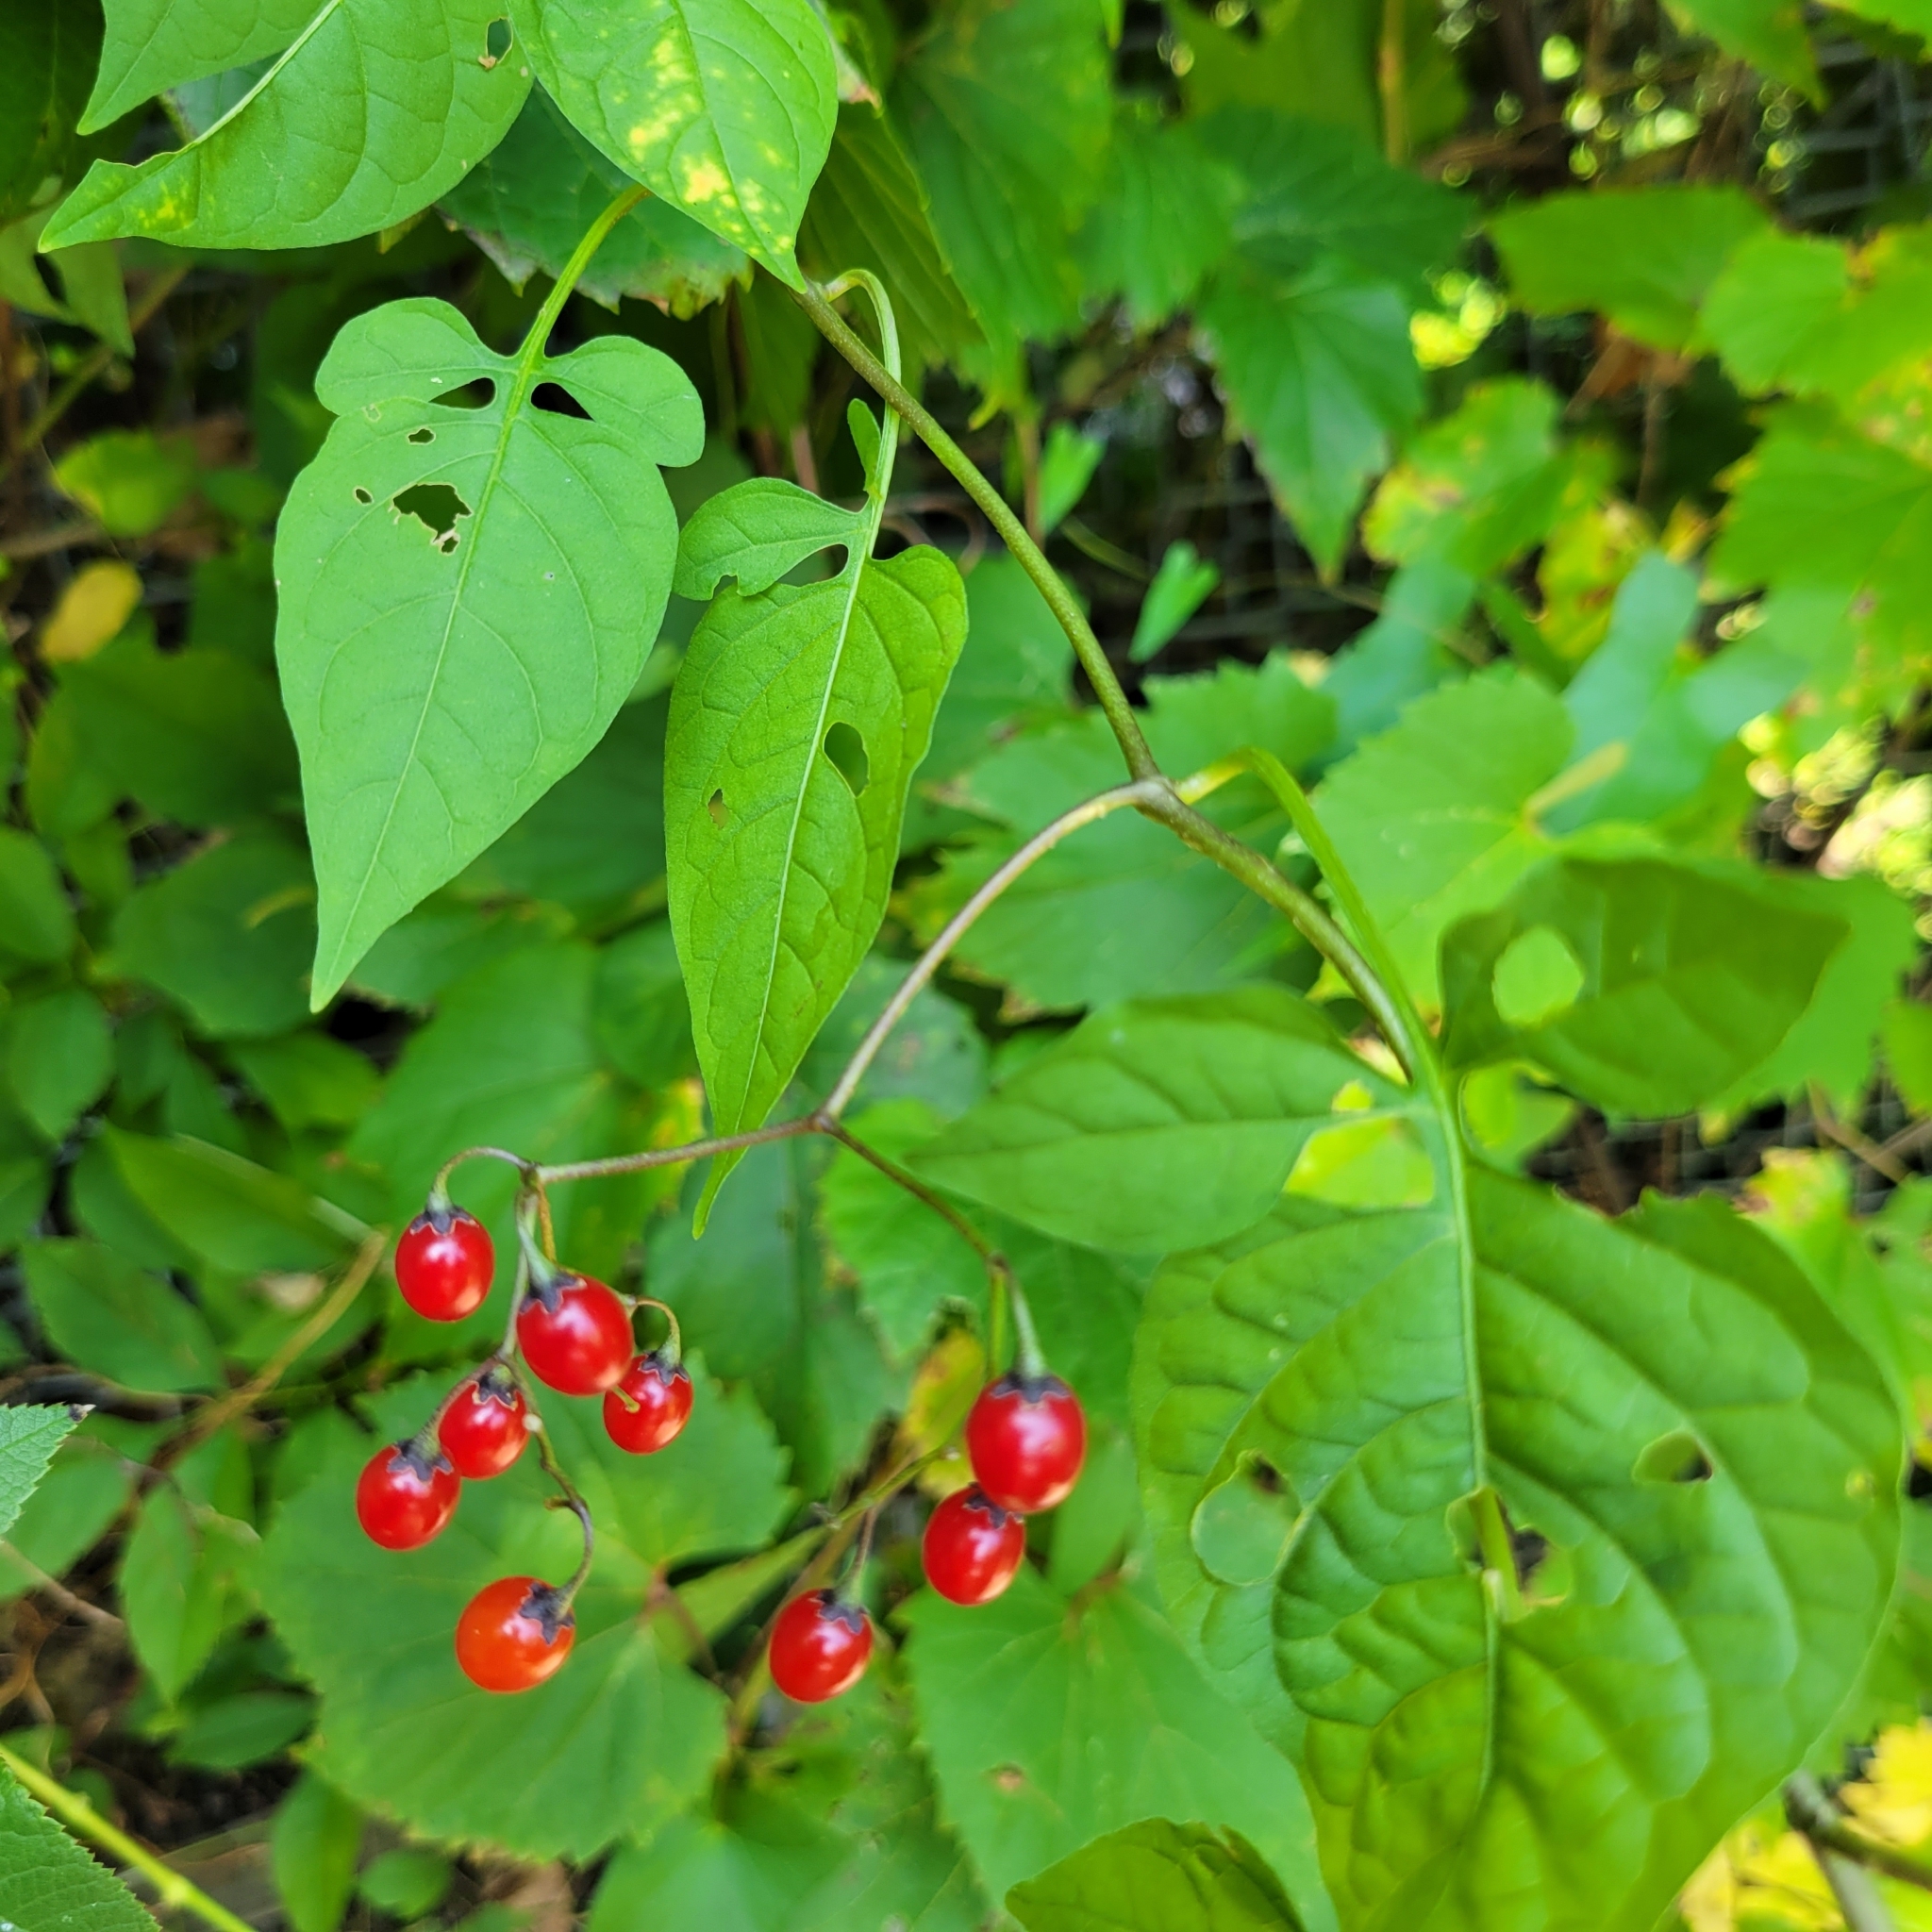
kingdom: Plantae
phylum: Tracheophyta
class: Magnoliopsida
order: Solanales
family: Solanaceae
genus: Solanum
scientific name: Solanum dulcamara
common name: Climbing nightshade
